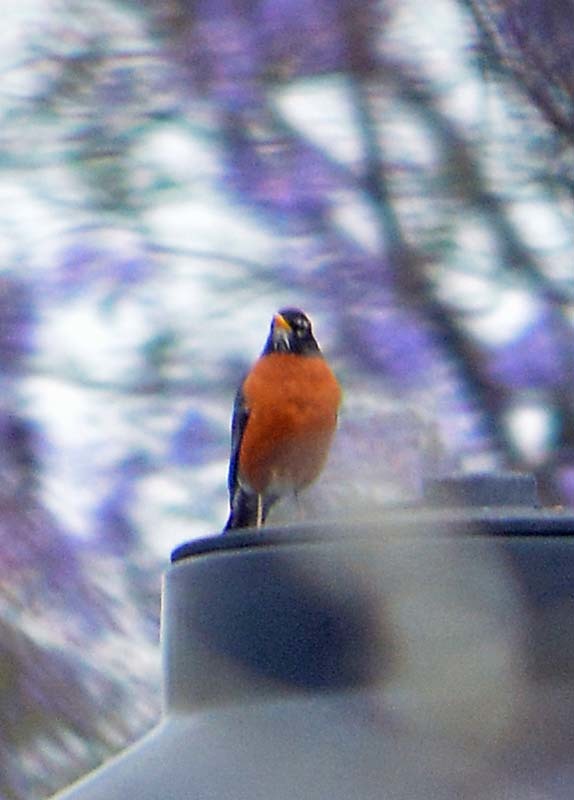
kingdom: Animalia
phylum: Chordata
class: Aves
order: Passeriformes
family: Turdidae
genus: Turdus
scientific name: Turdus migratorius
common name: American robin
